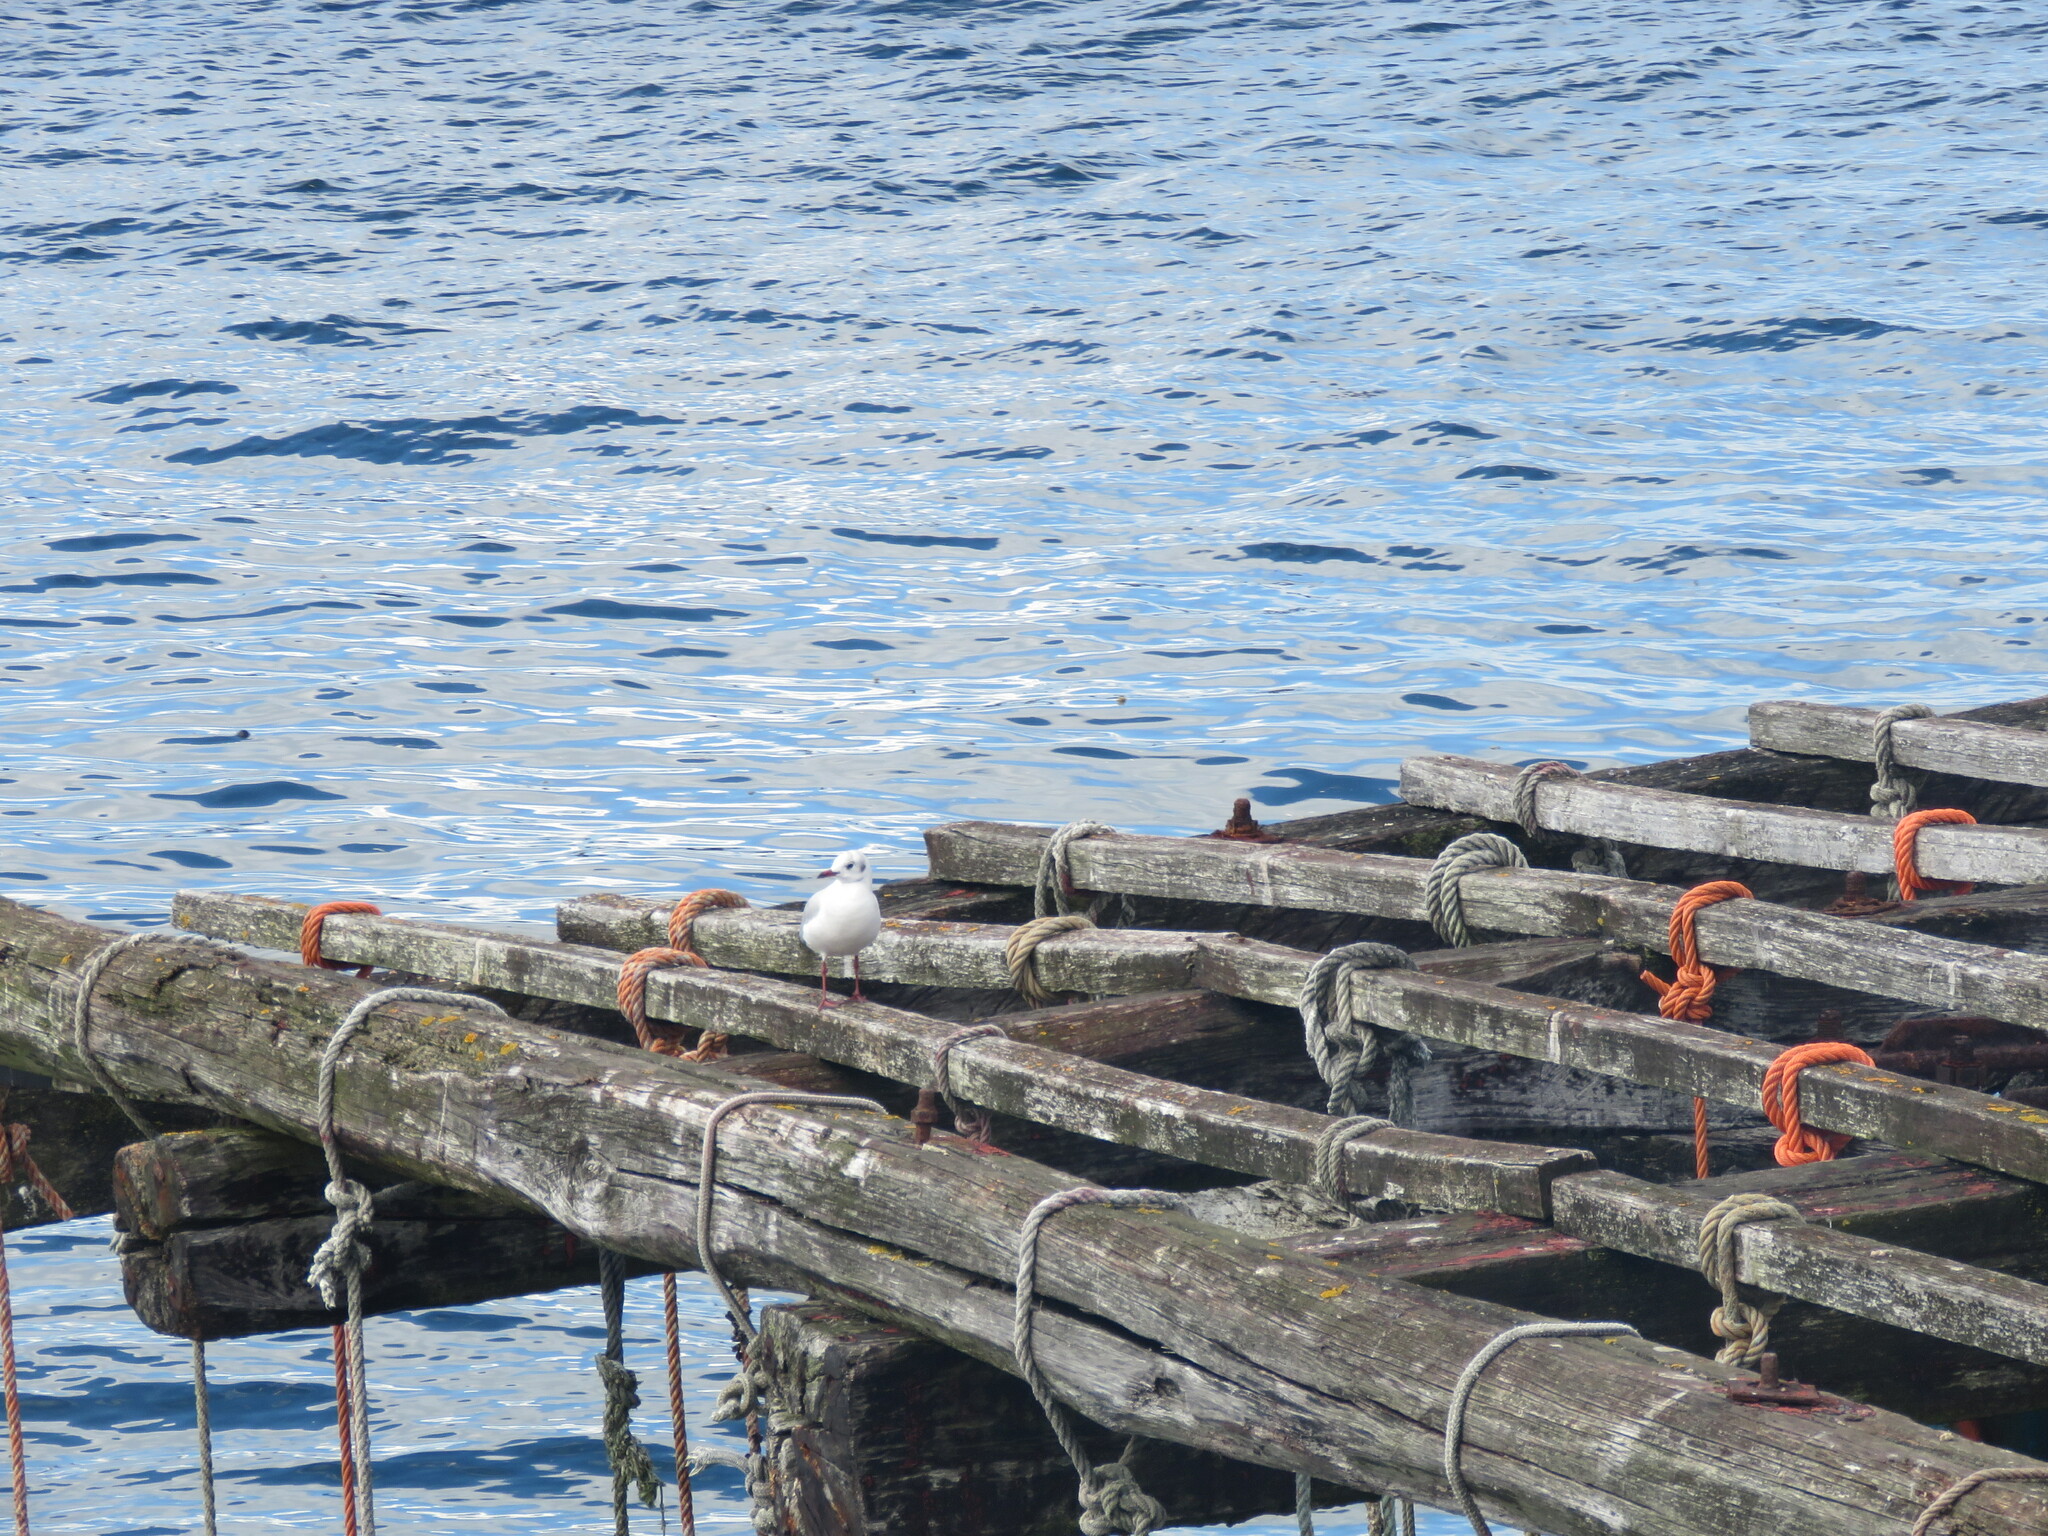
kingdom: Animalia
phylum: Chordata
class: Aves
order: Charadriiformes
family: Laridae
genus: Chroicocephalus
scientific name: Chroicocephalus ridibundus
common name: Black-headed gull
